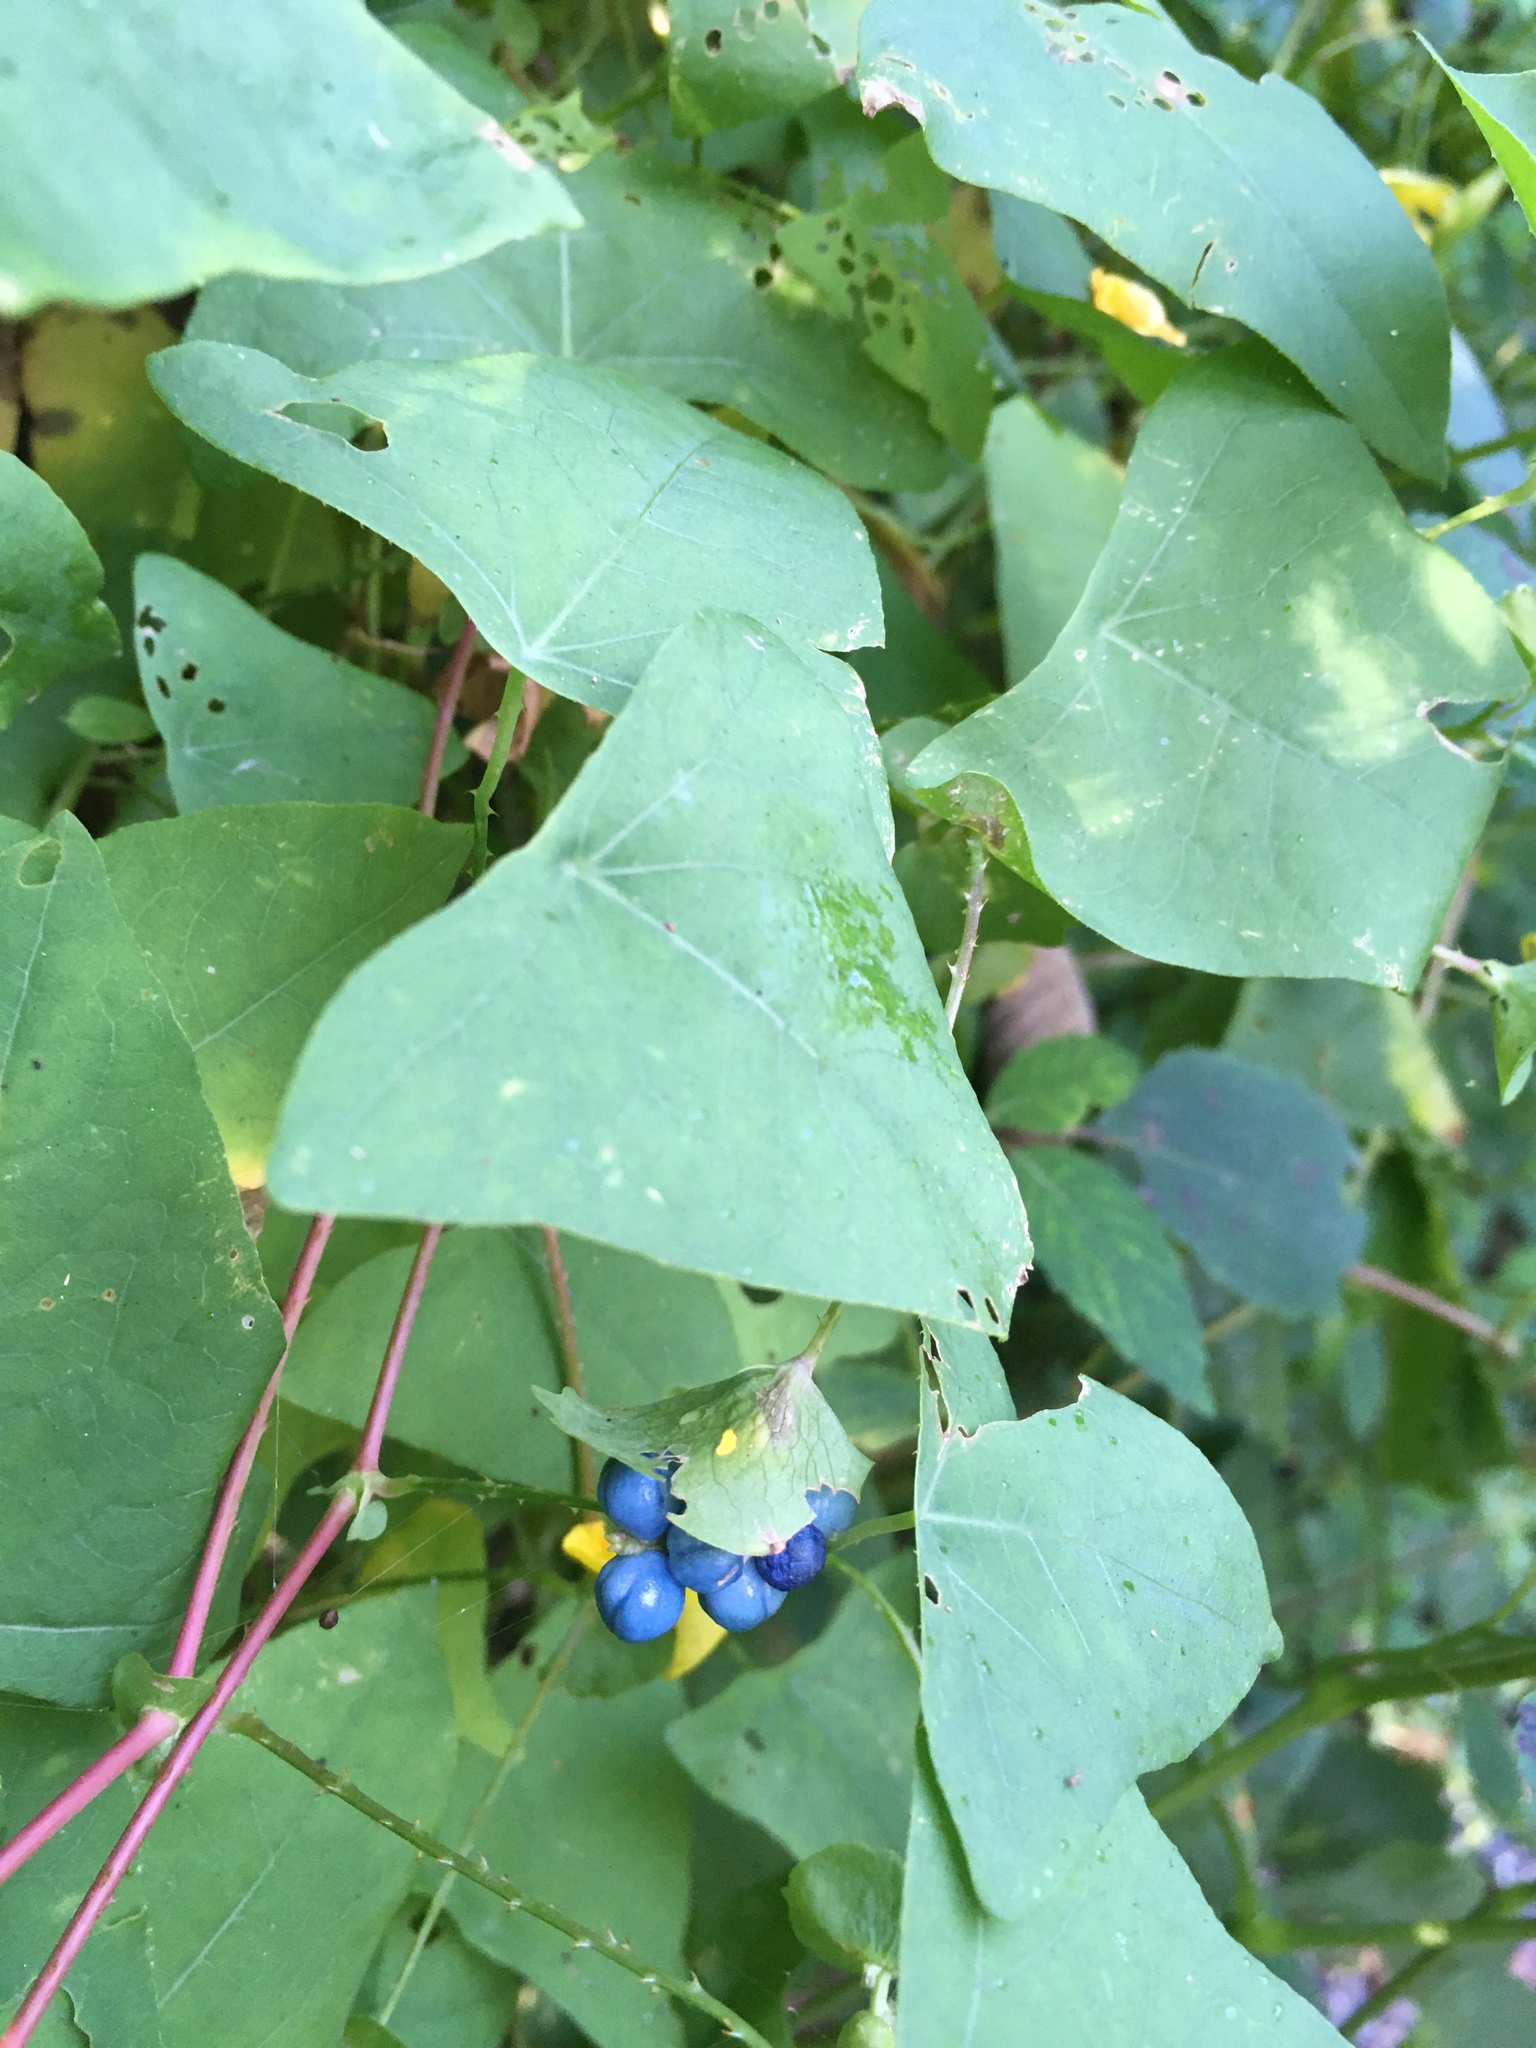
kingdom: Plantae
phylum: Tracheophyta
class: Magnoliopsida
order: Caryophyllales
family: Polygonaceae
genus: Persicaria
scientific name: Persicaria perfoliata
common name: Asiatic tearthumb
